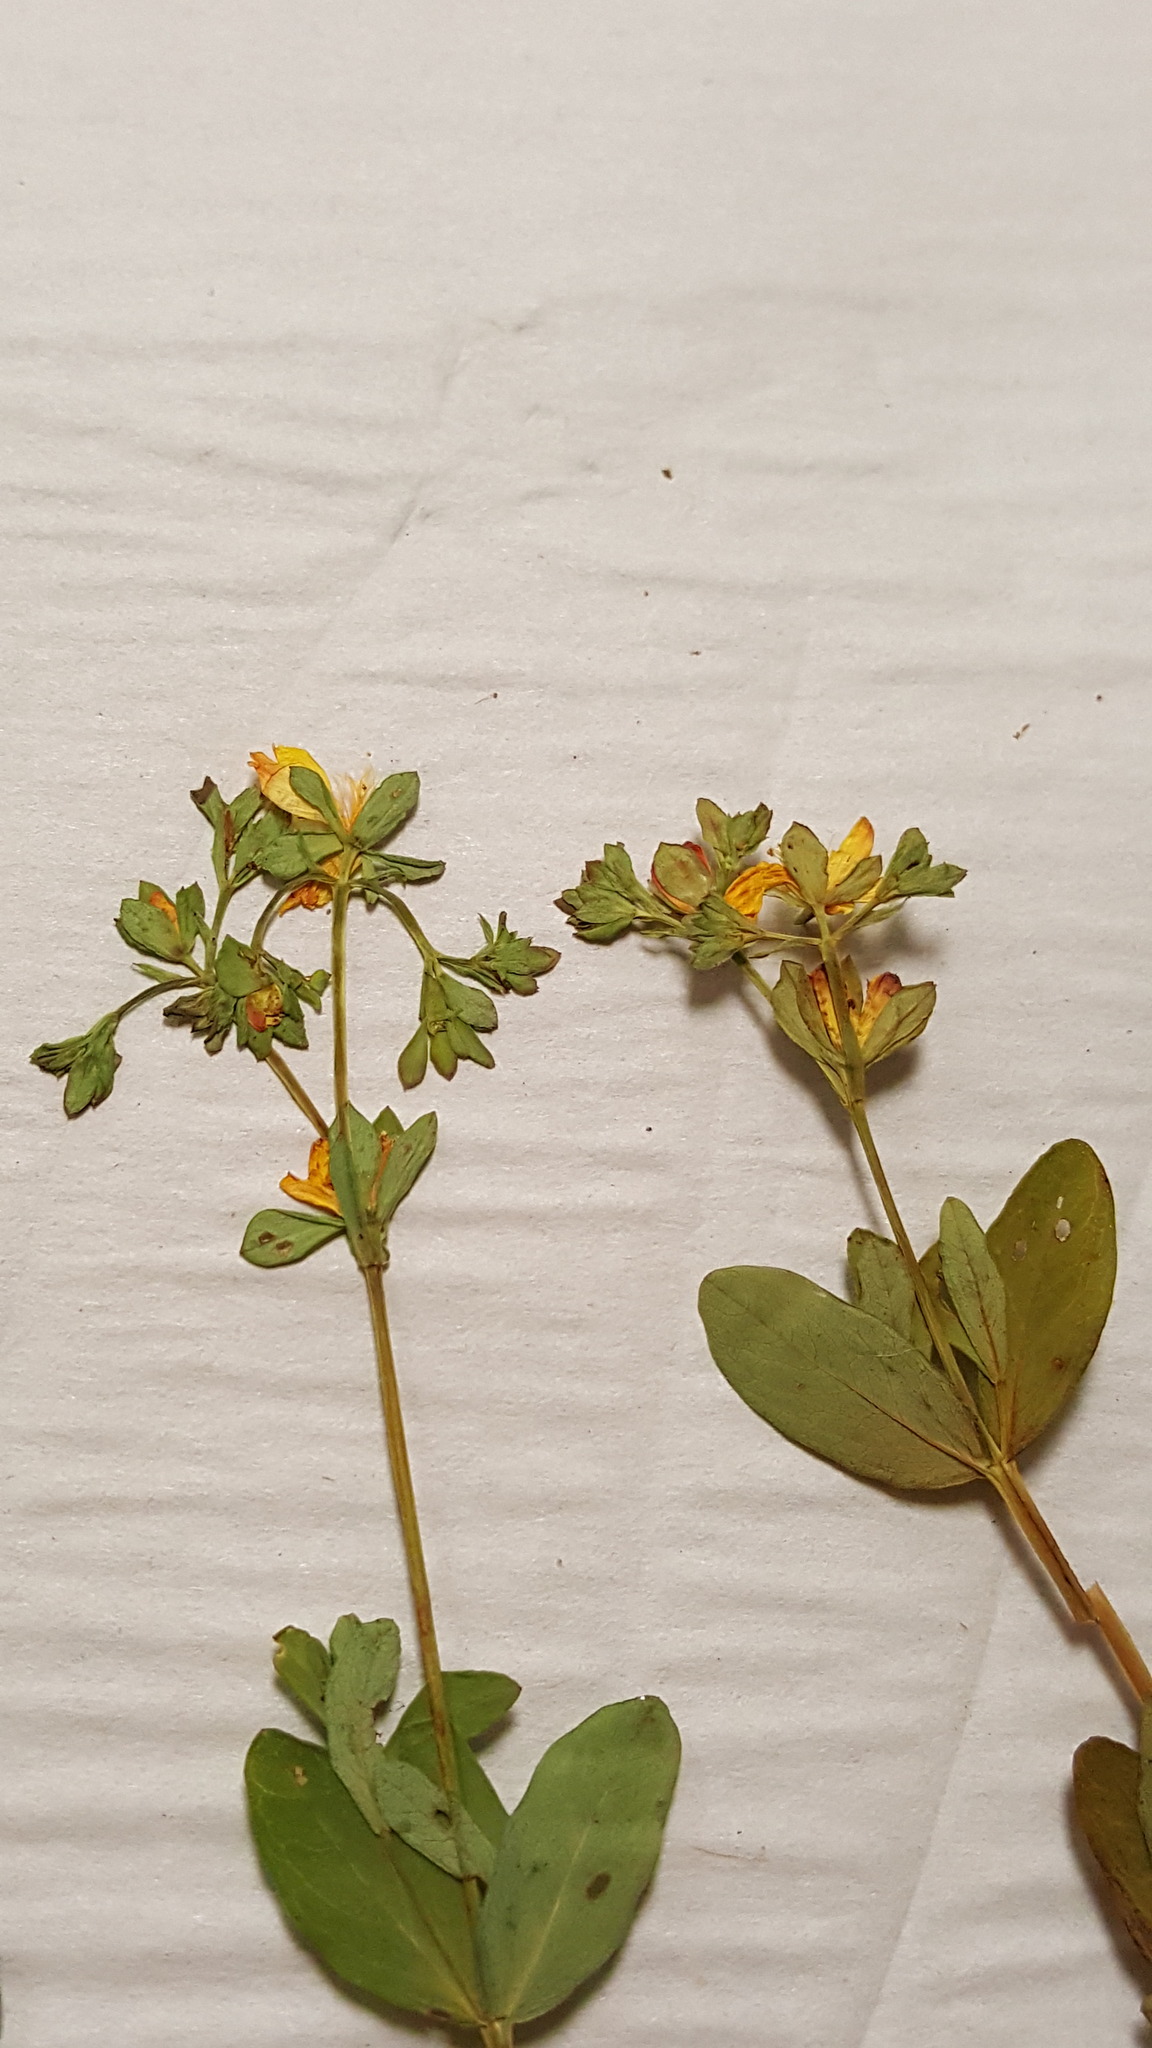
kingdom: Plantae
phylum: Tracheophyta
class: Magnoliopsida
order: Malpighiales
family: Hypericaceae
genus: Hypericum
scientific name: Hypericum ellipticum
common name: Elliptic st. john's-wort
